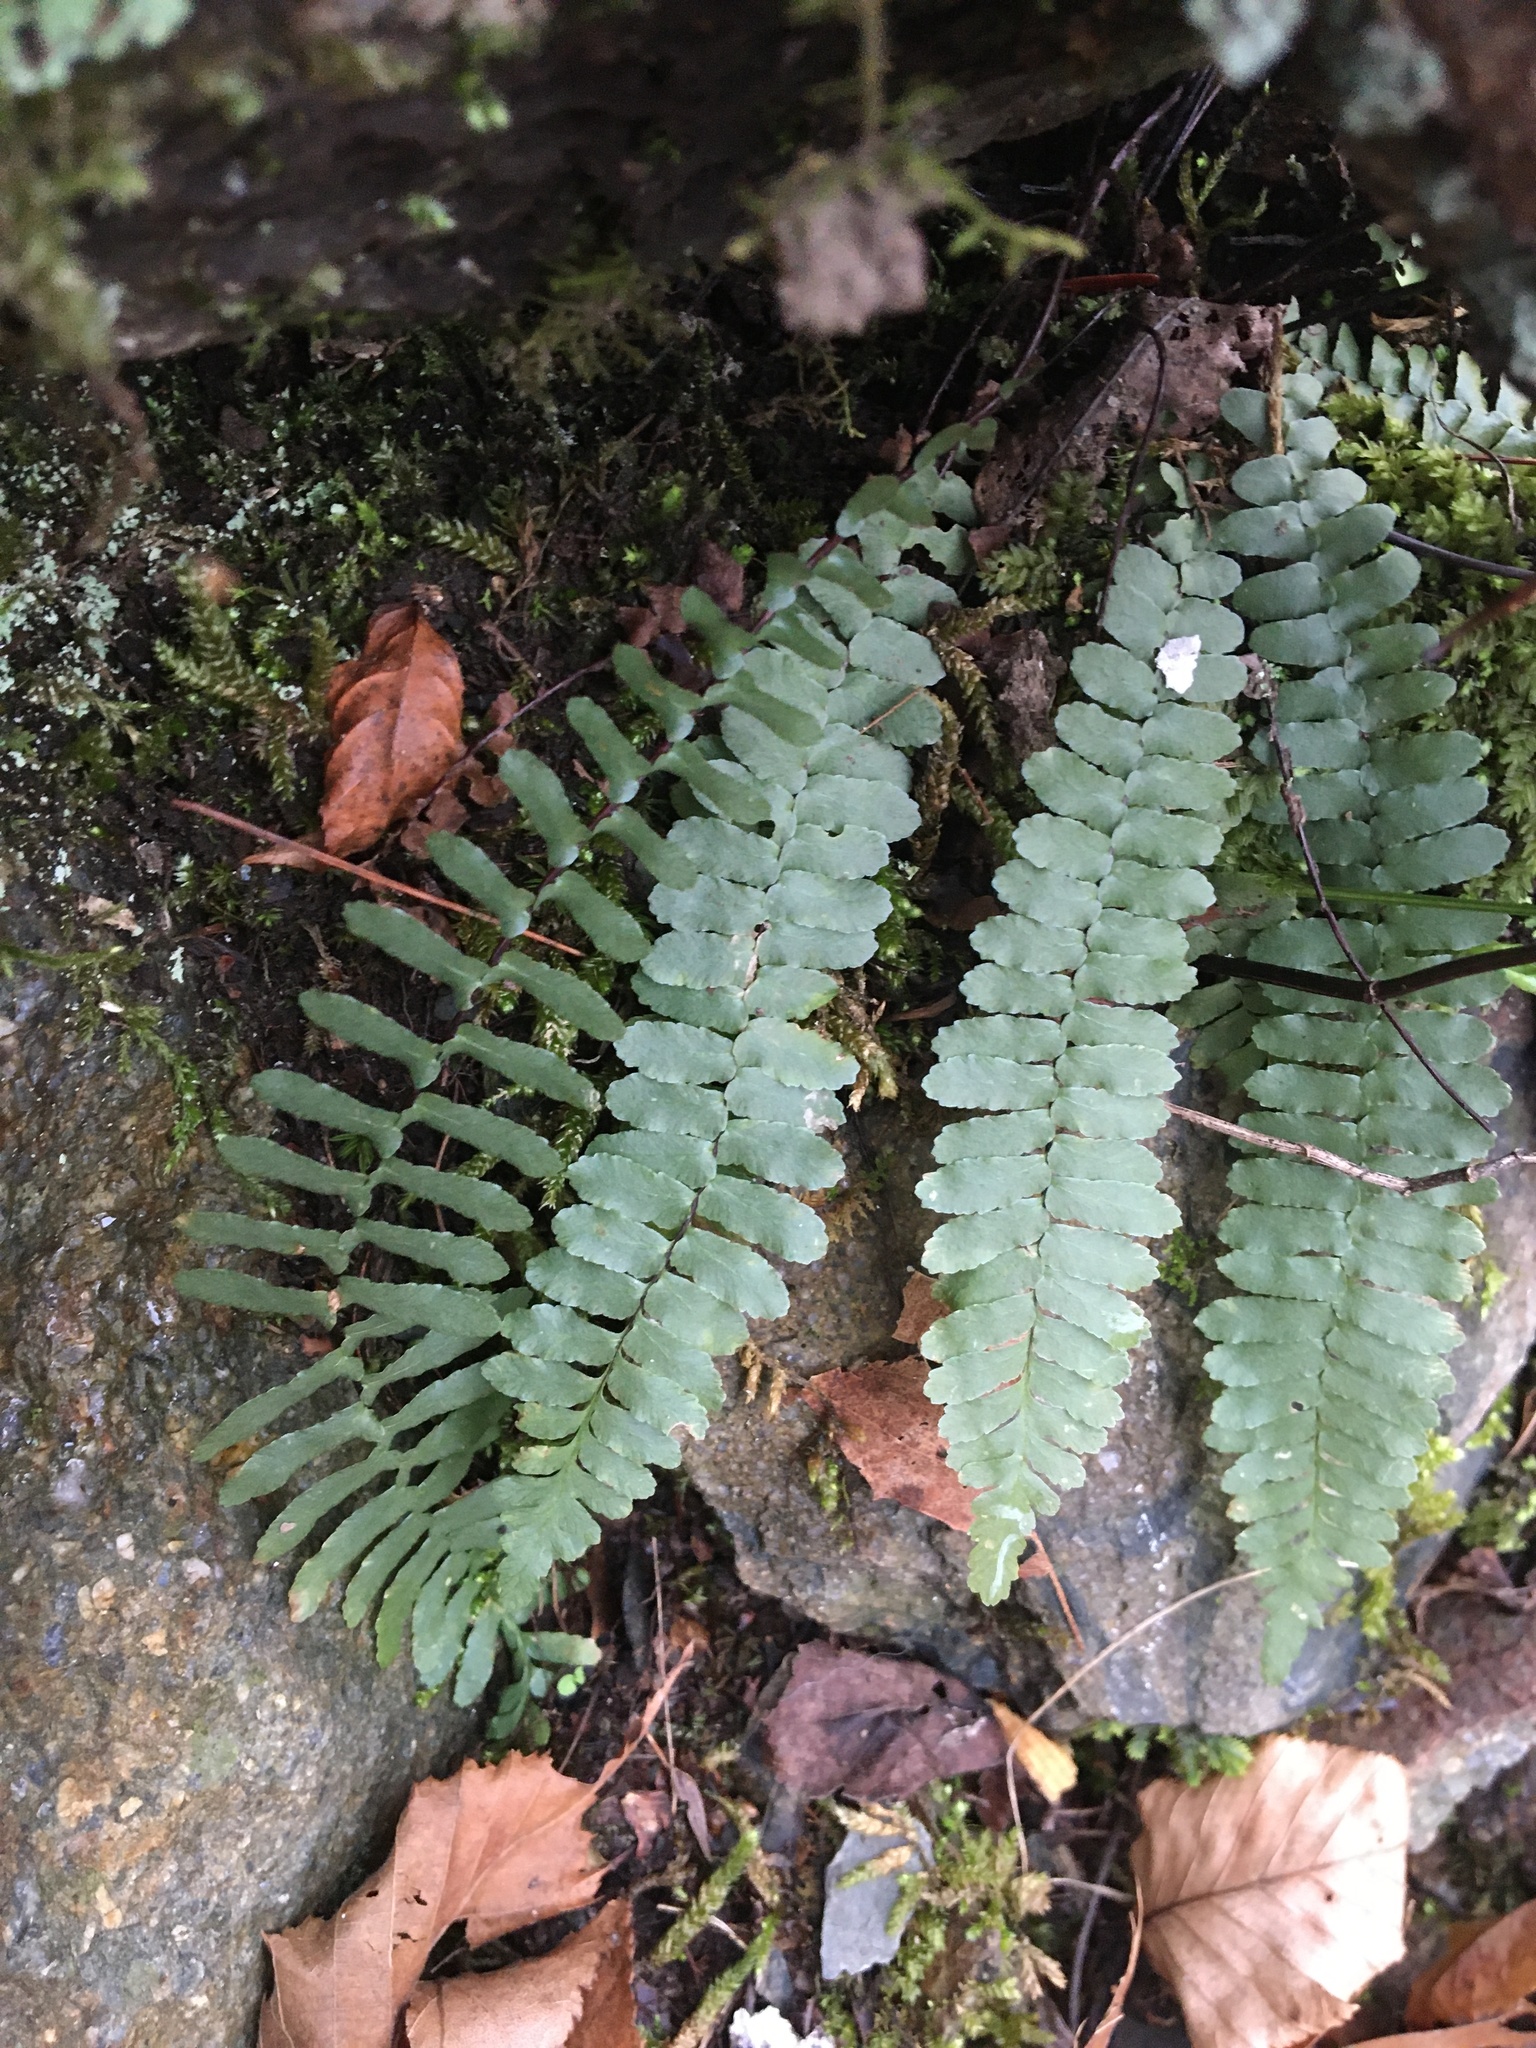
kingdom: Plantae
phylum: Tracheophyta
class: Polypodiopsida
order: Polypodiales
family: Aspleniaceae
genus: Asplenium
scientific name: Asplenium platyneuron
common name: Ebony spleenwort
